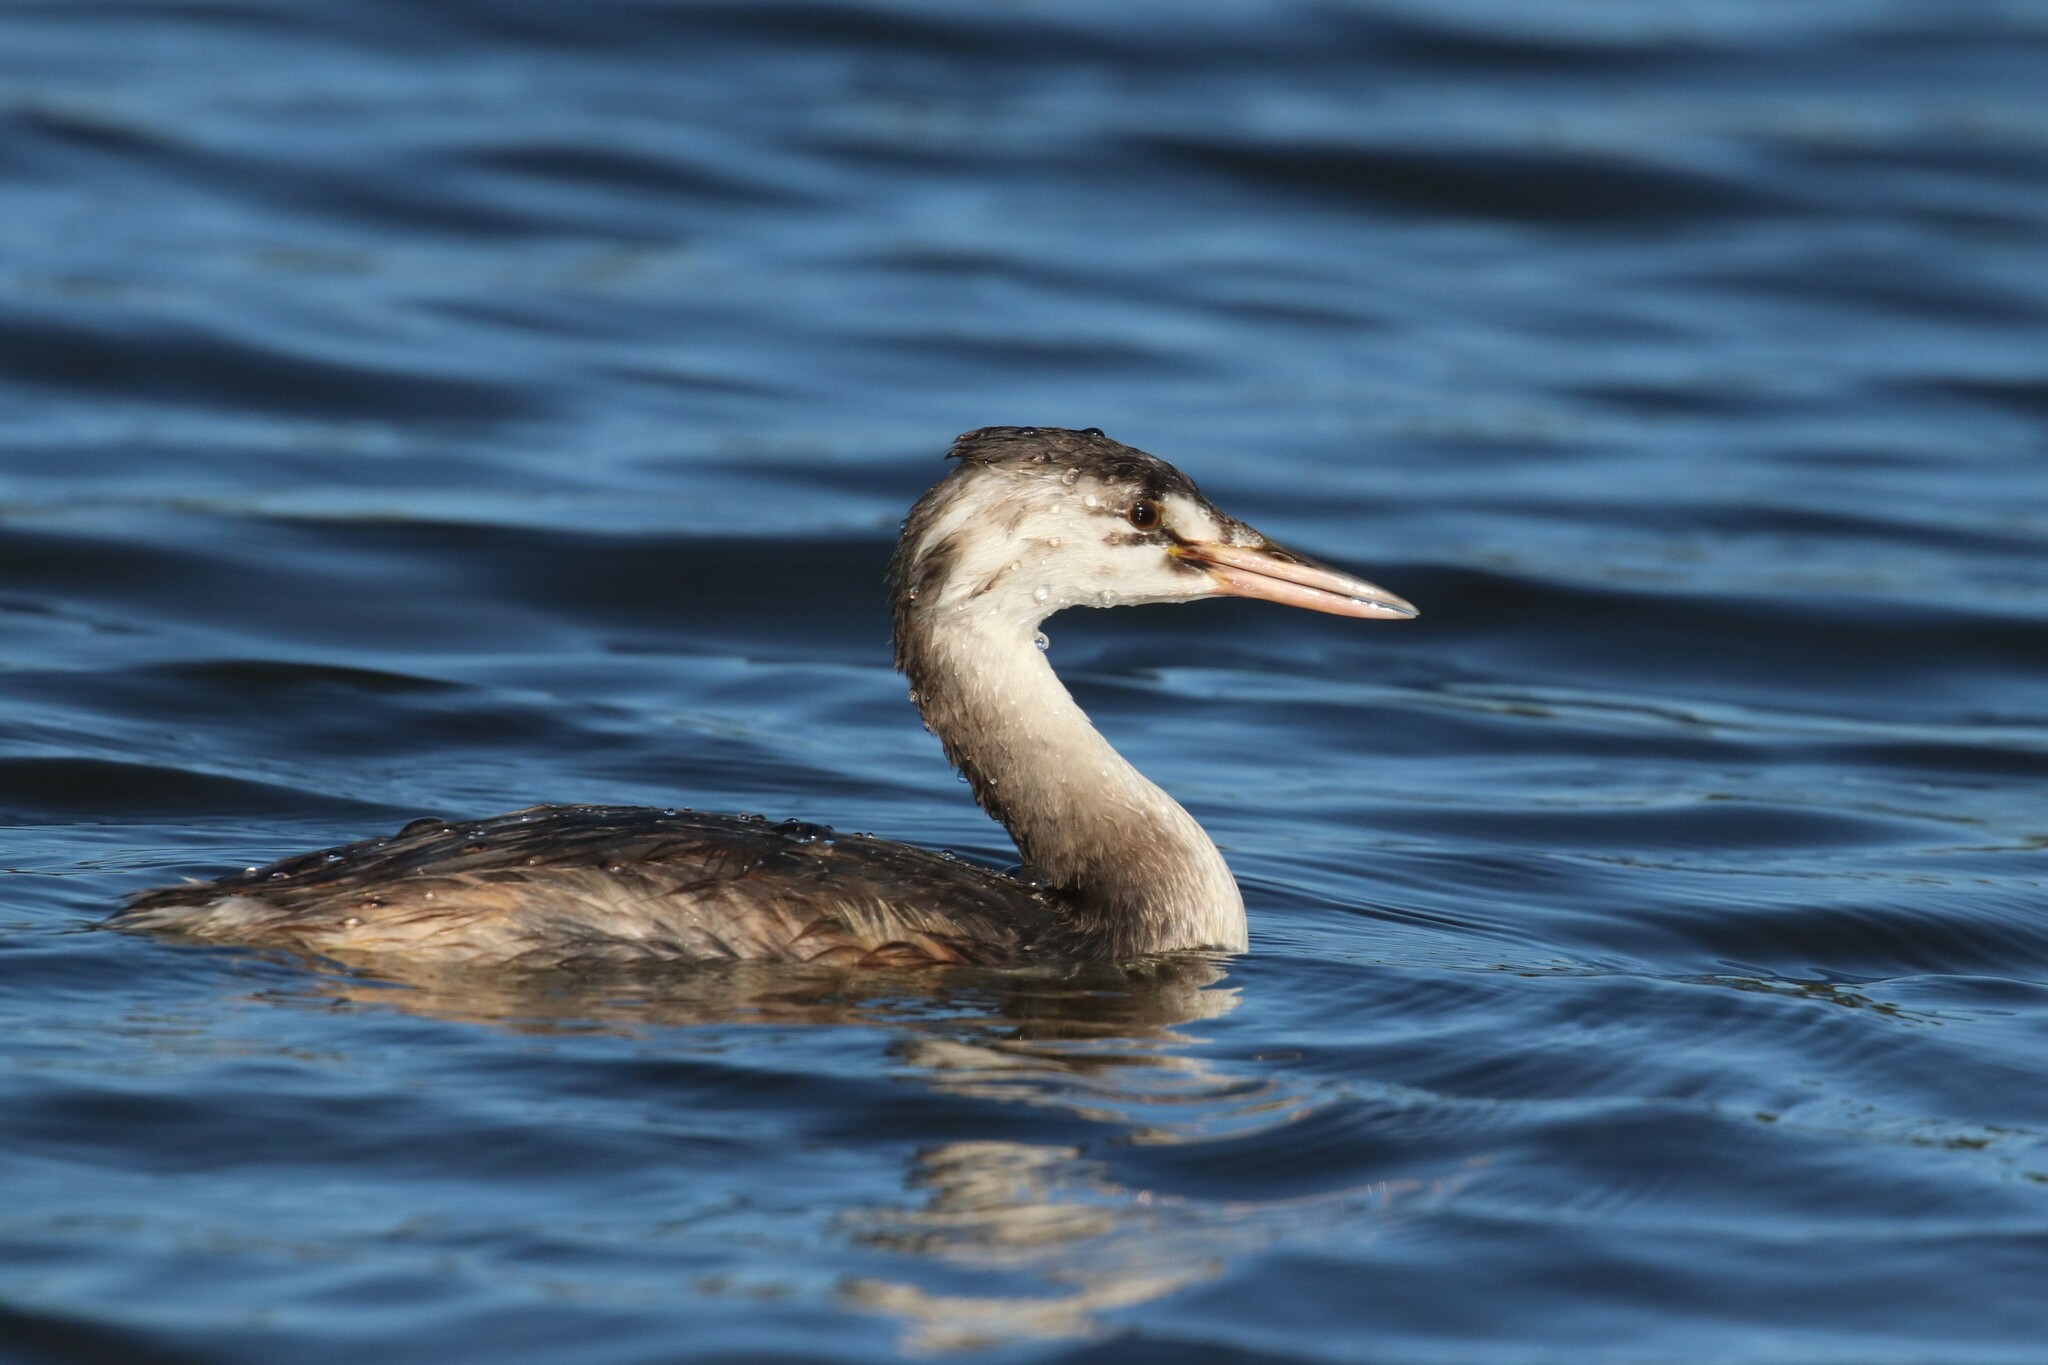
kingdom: Animalia
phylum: Chordata
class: Aves
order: Podicipediformes
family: Podicipedidae
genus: Podiceps
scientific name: Podiceps cristatus
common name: Great crested grebe
